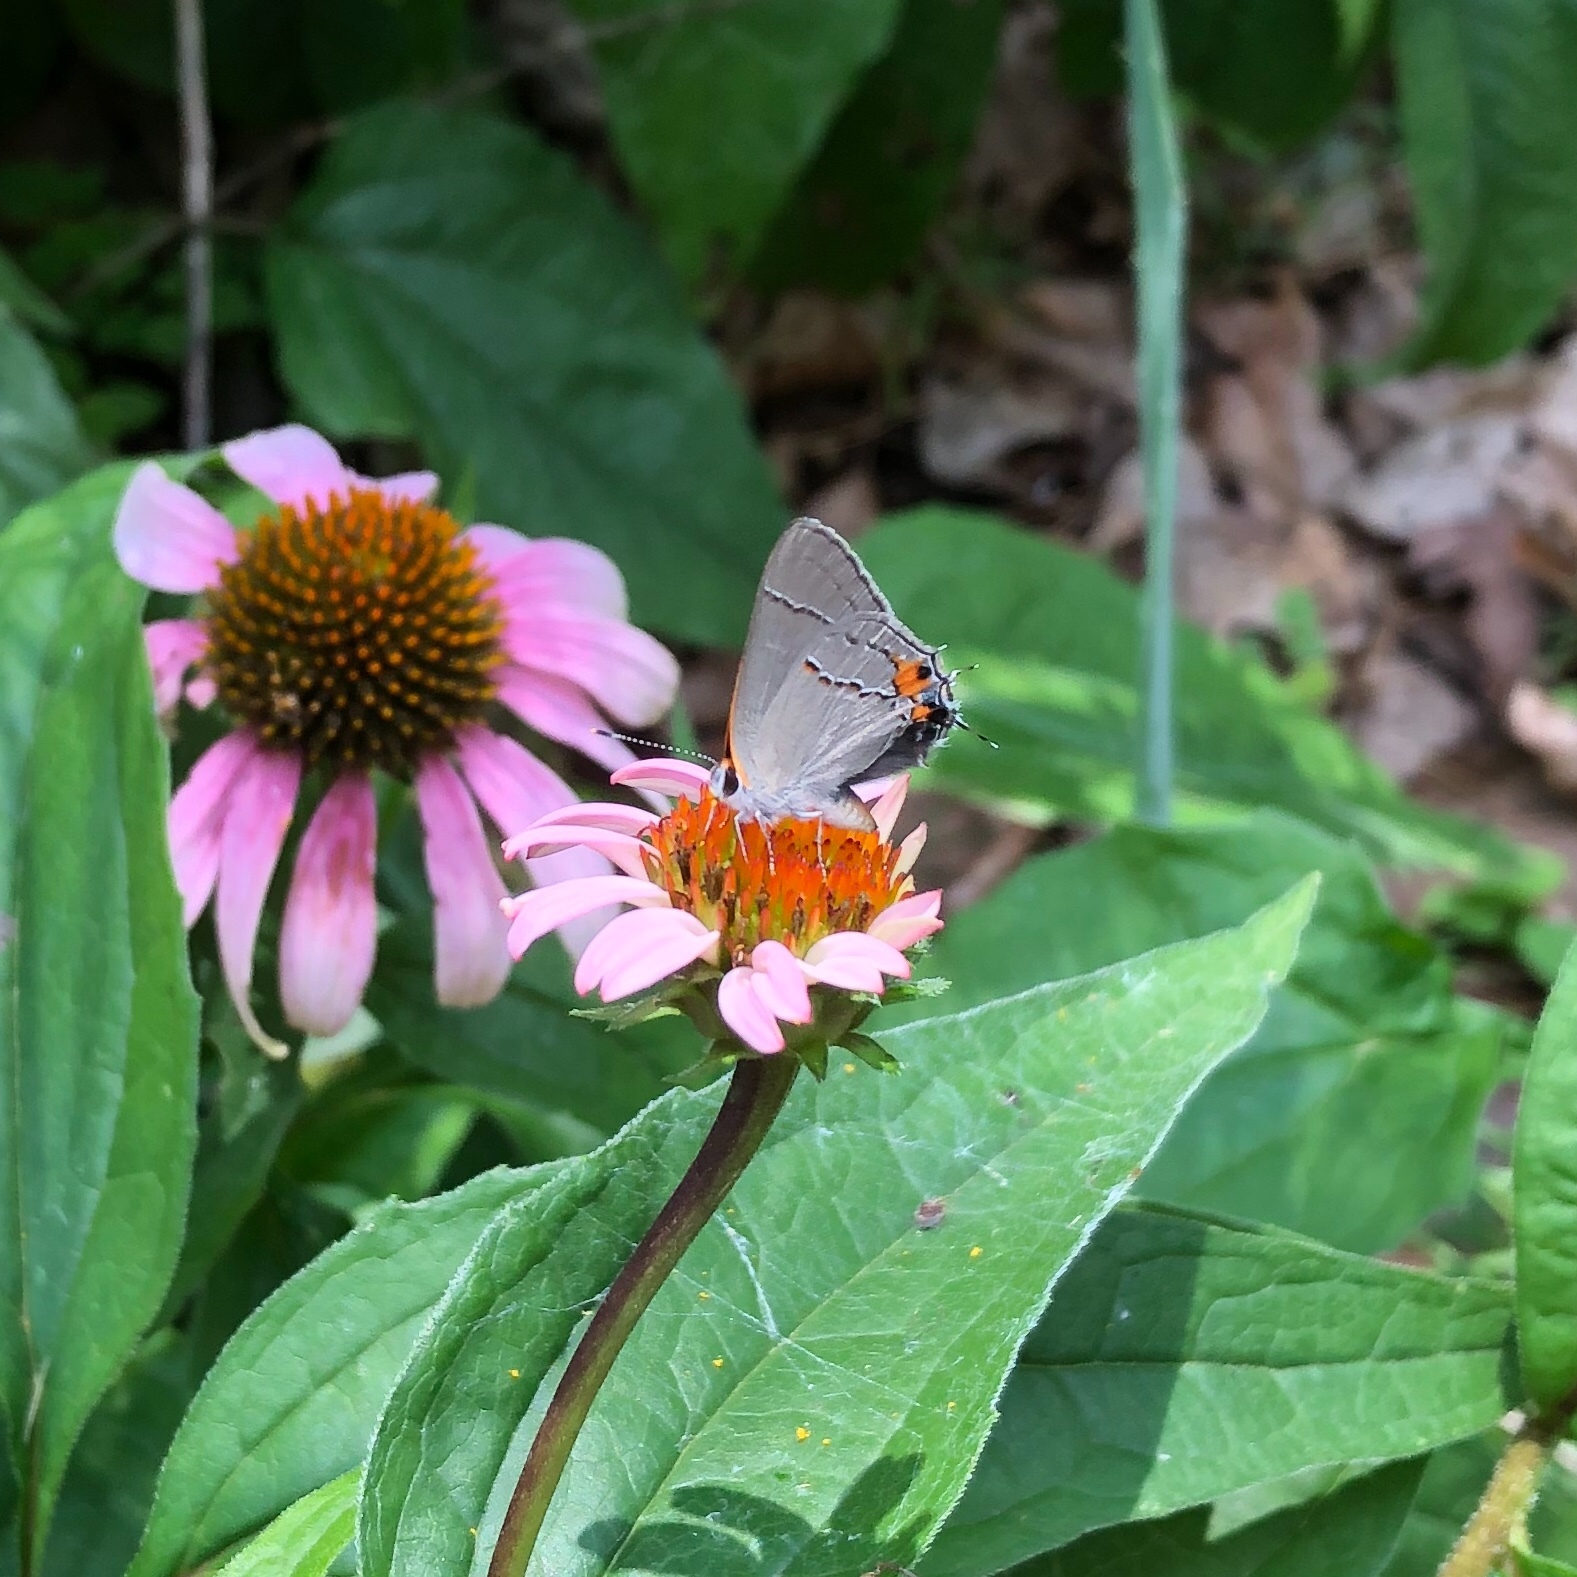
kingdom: Animalia
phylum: Arthropoda
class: Insecta
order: Lepidoptera
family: Lycaenidae
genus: Strymon
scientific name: Strymon melinus
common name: Gray hairstreak
